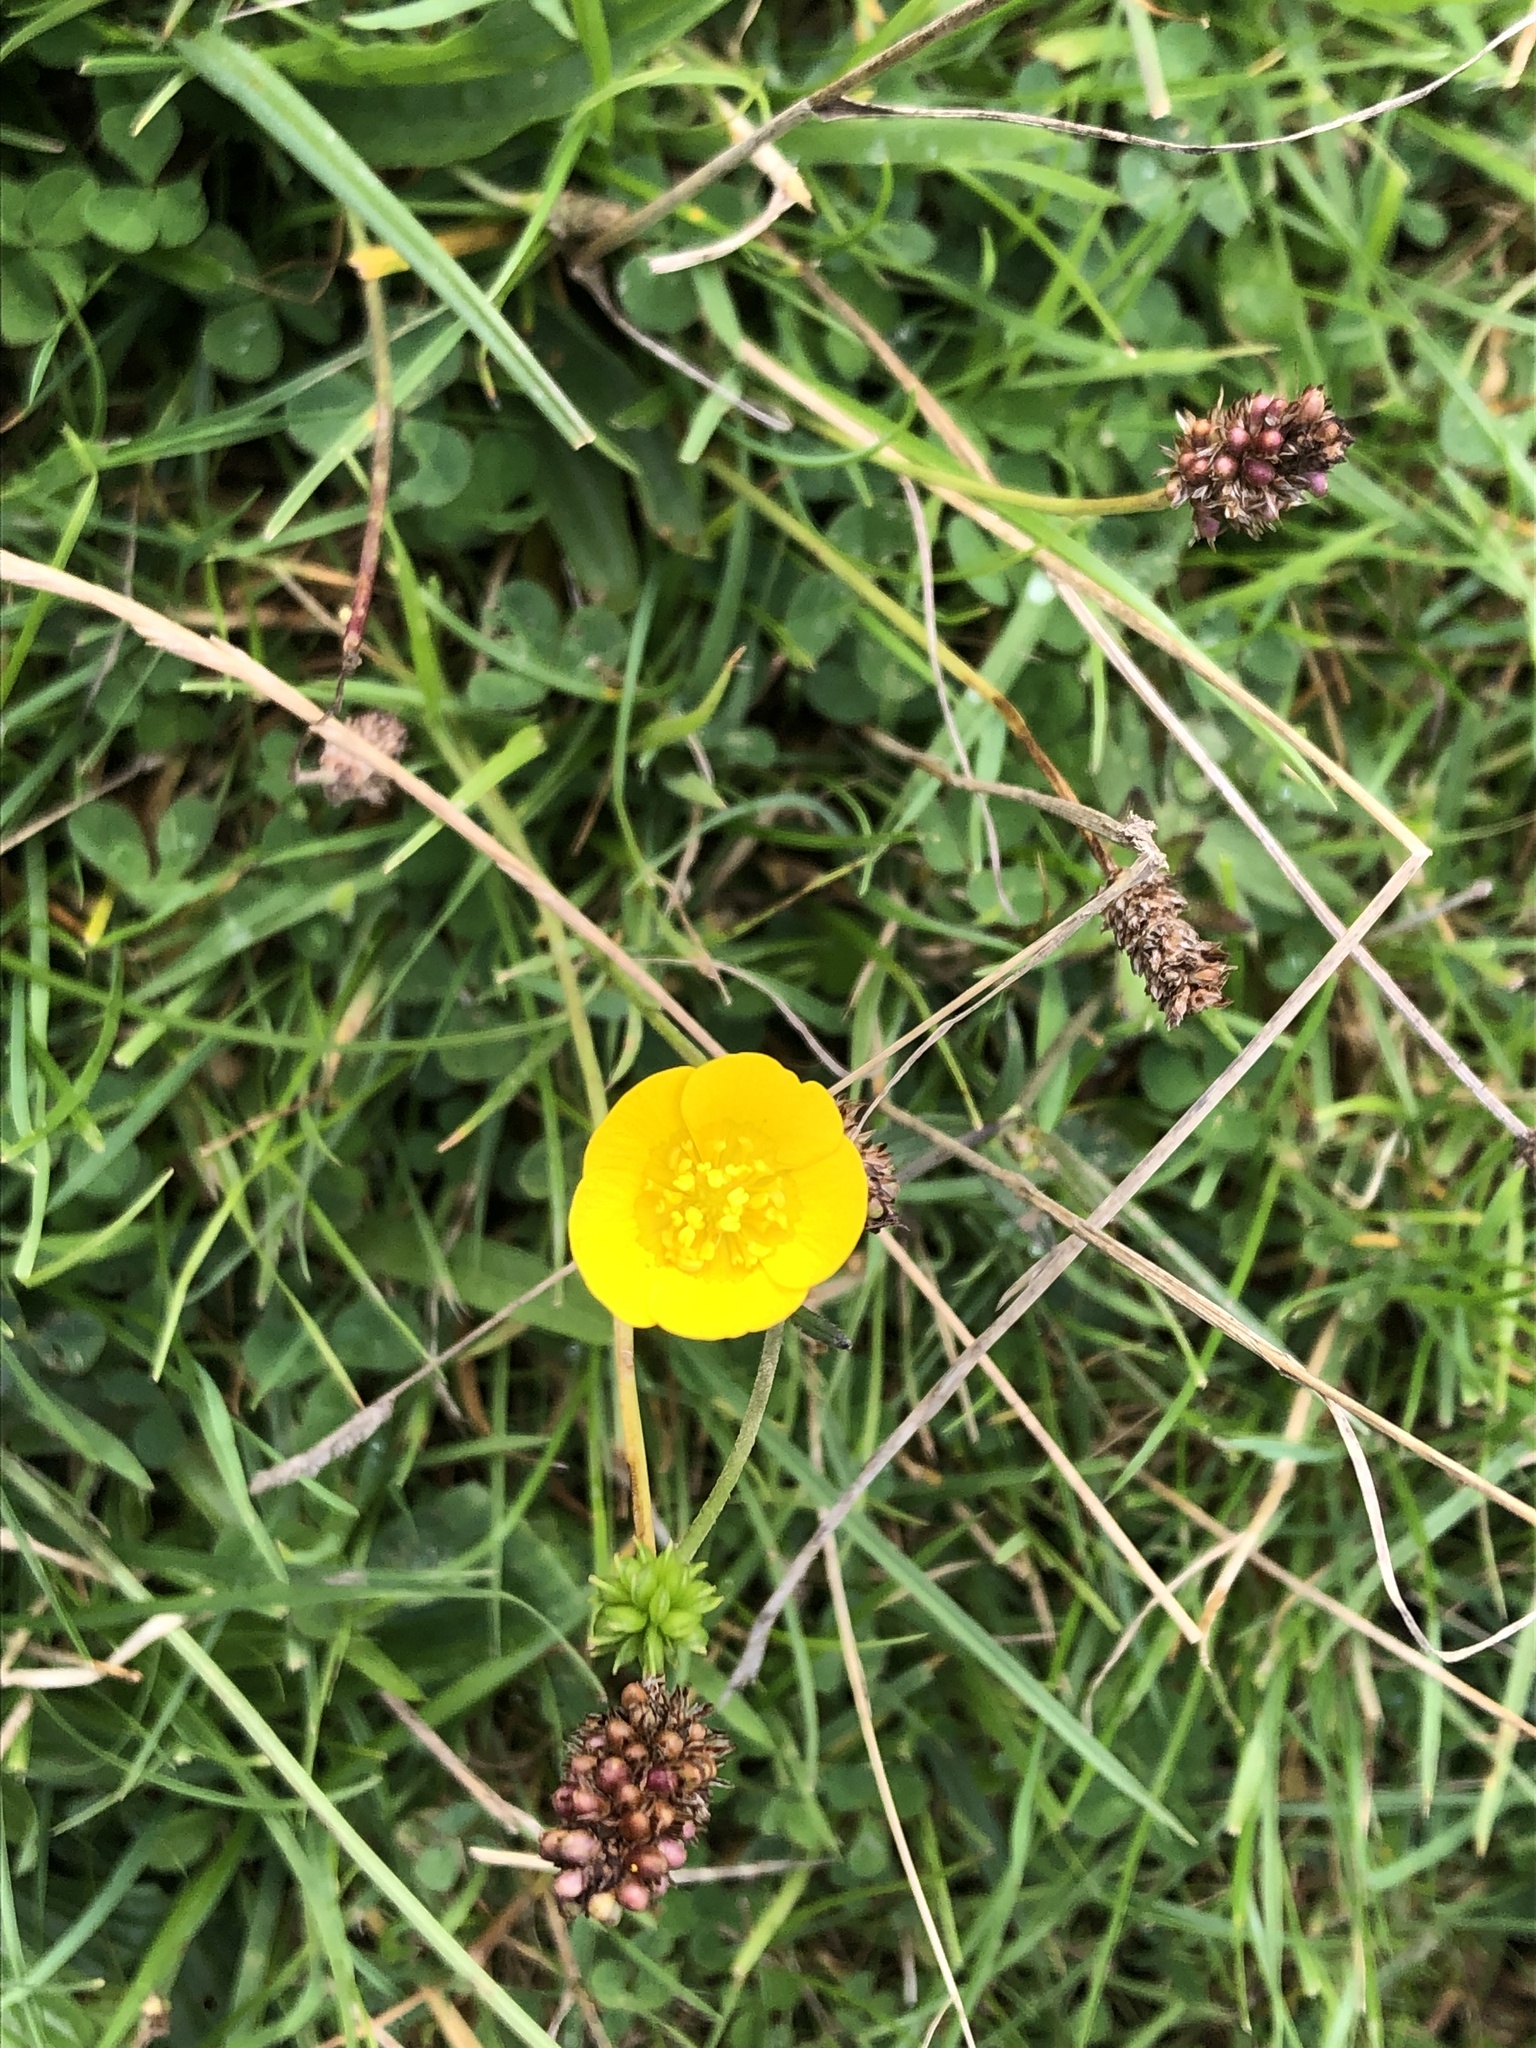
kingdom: Plantae
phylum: Tracheophyta
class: Magnoliopsida
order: Ranunculales
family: Ranunculaceae
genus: Ranunculus
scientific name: Ranunculus acris
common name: Meadow buttercup
